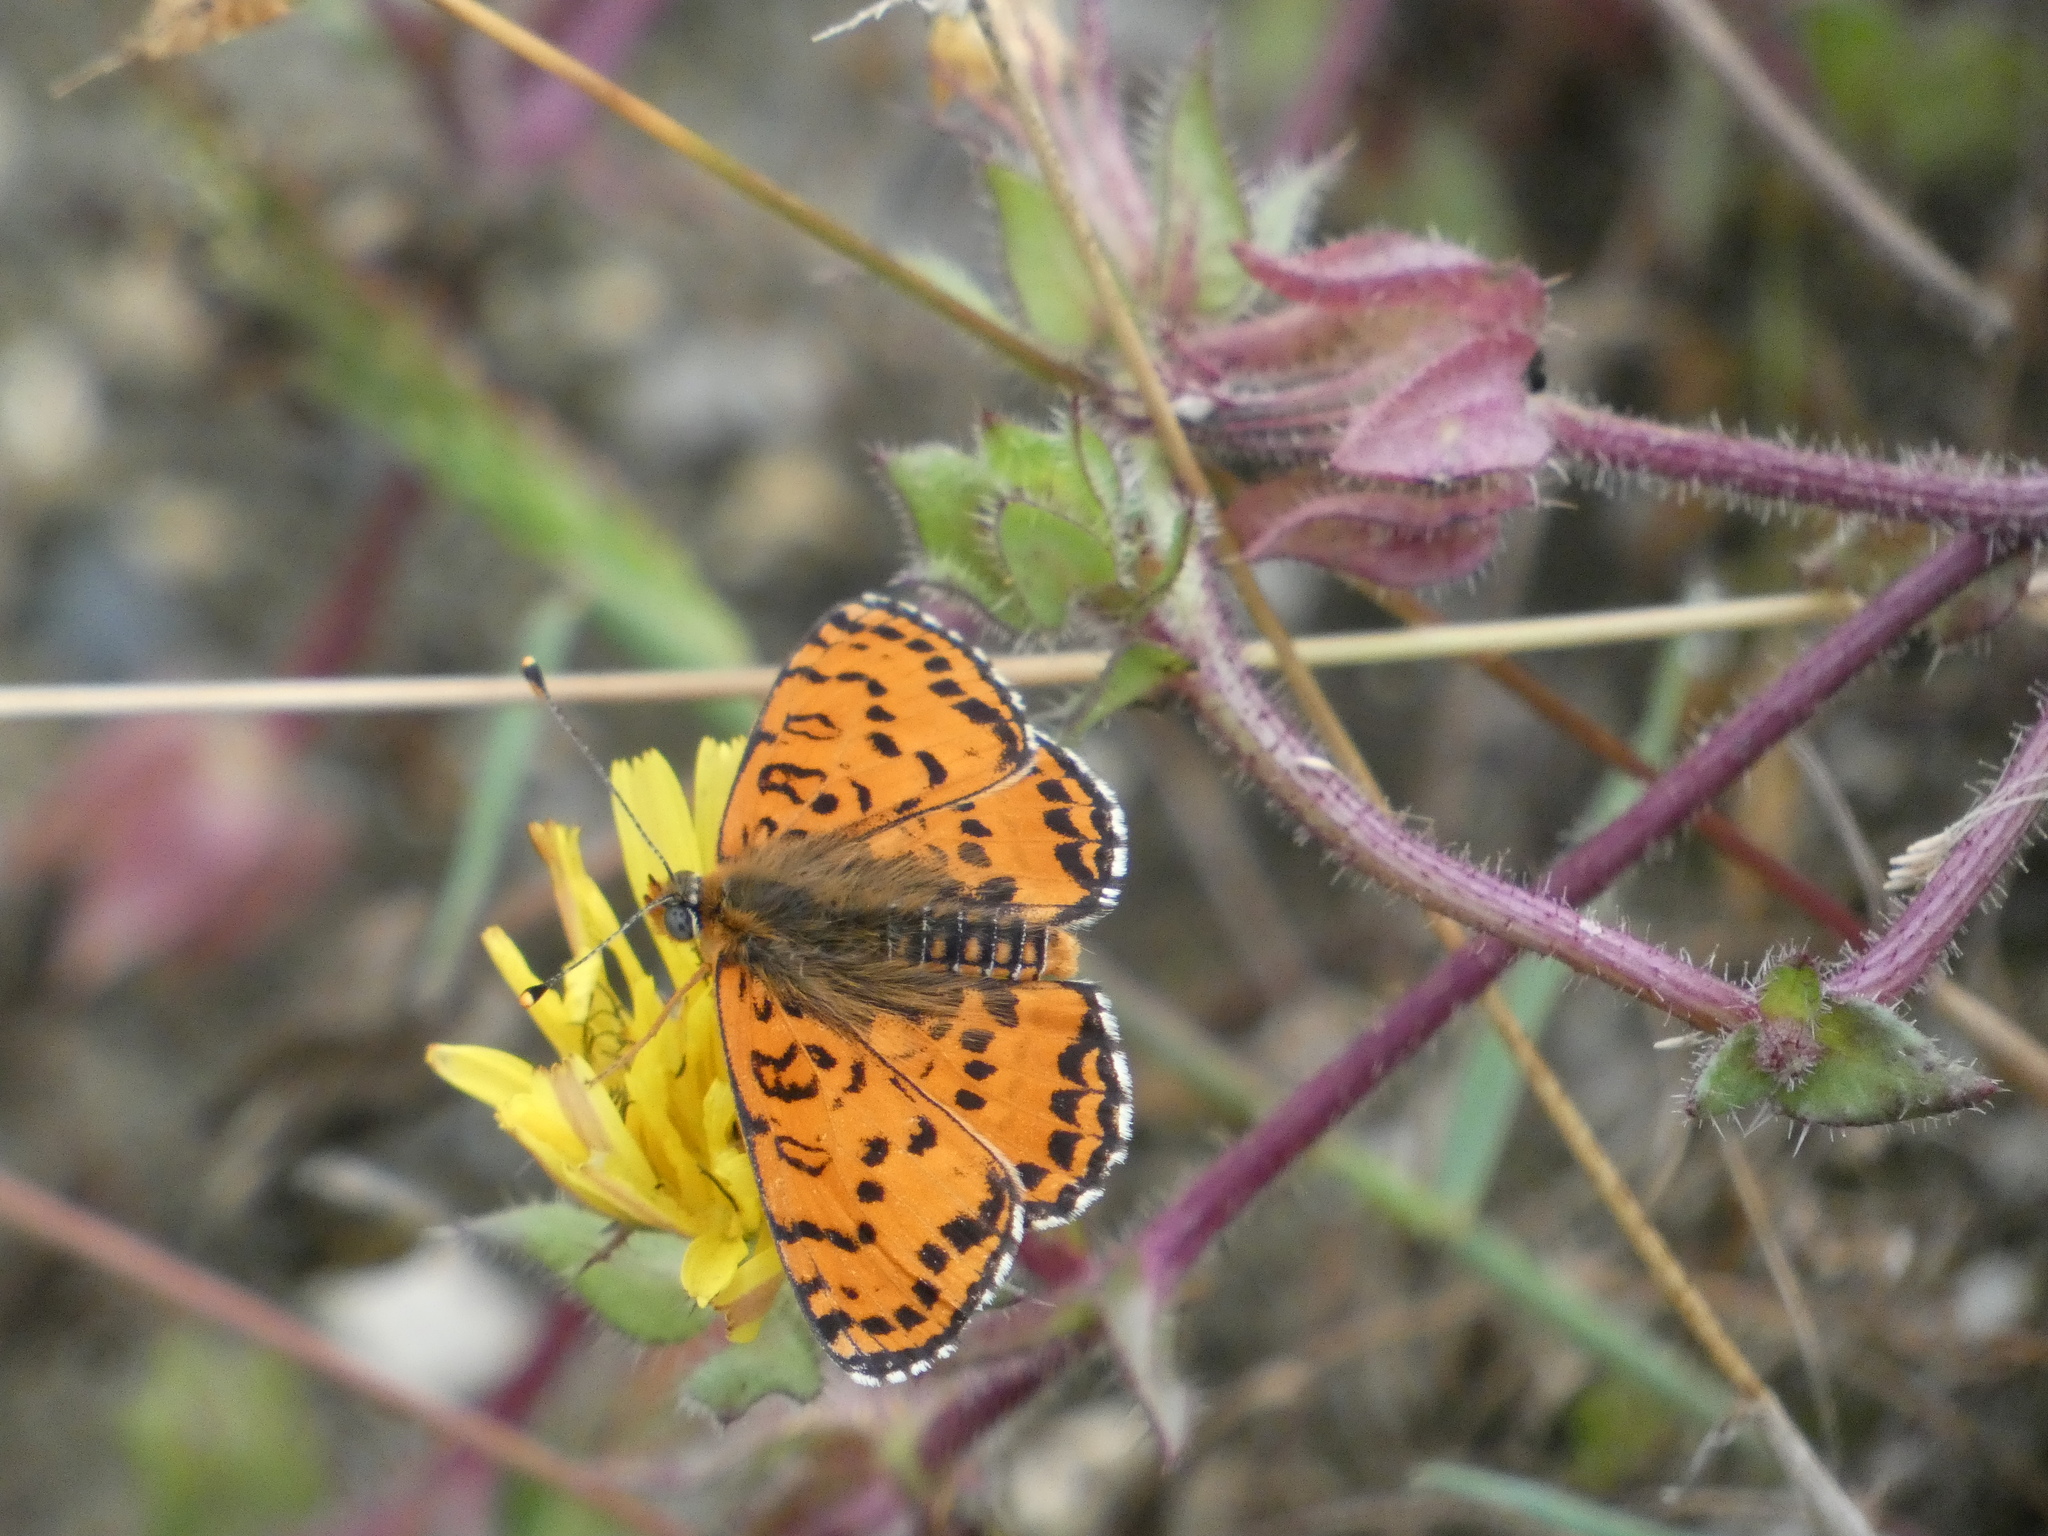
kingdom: Animalia
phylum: Arthropoda
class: Insecta
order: Lepidoptera
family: Nymphalidae
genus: Melitaea
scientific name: Melitaea didyma
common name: Spotted fritillary
